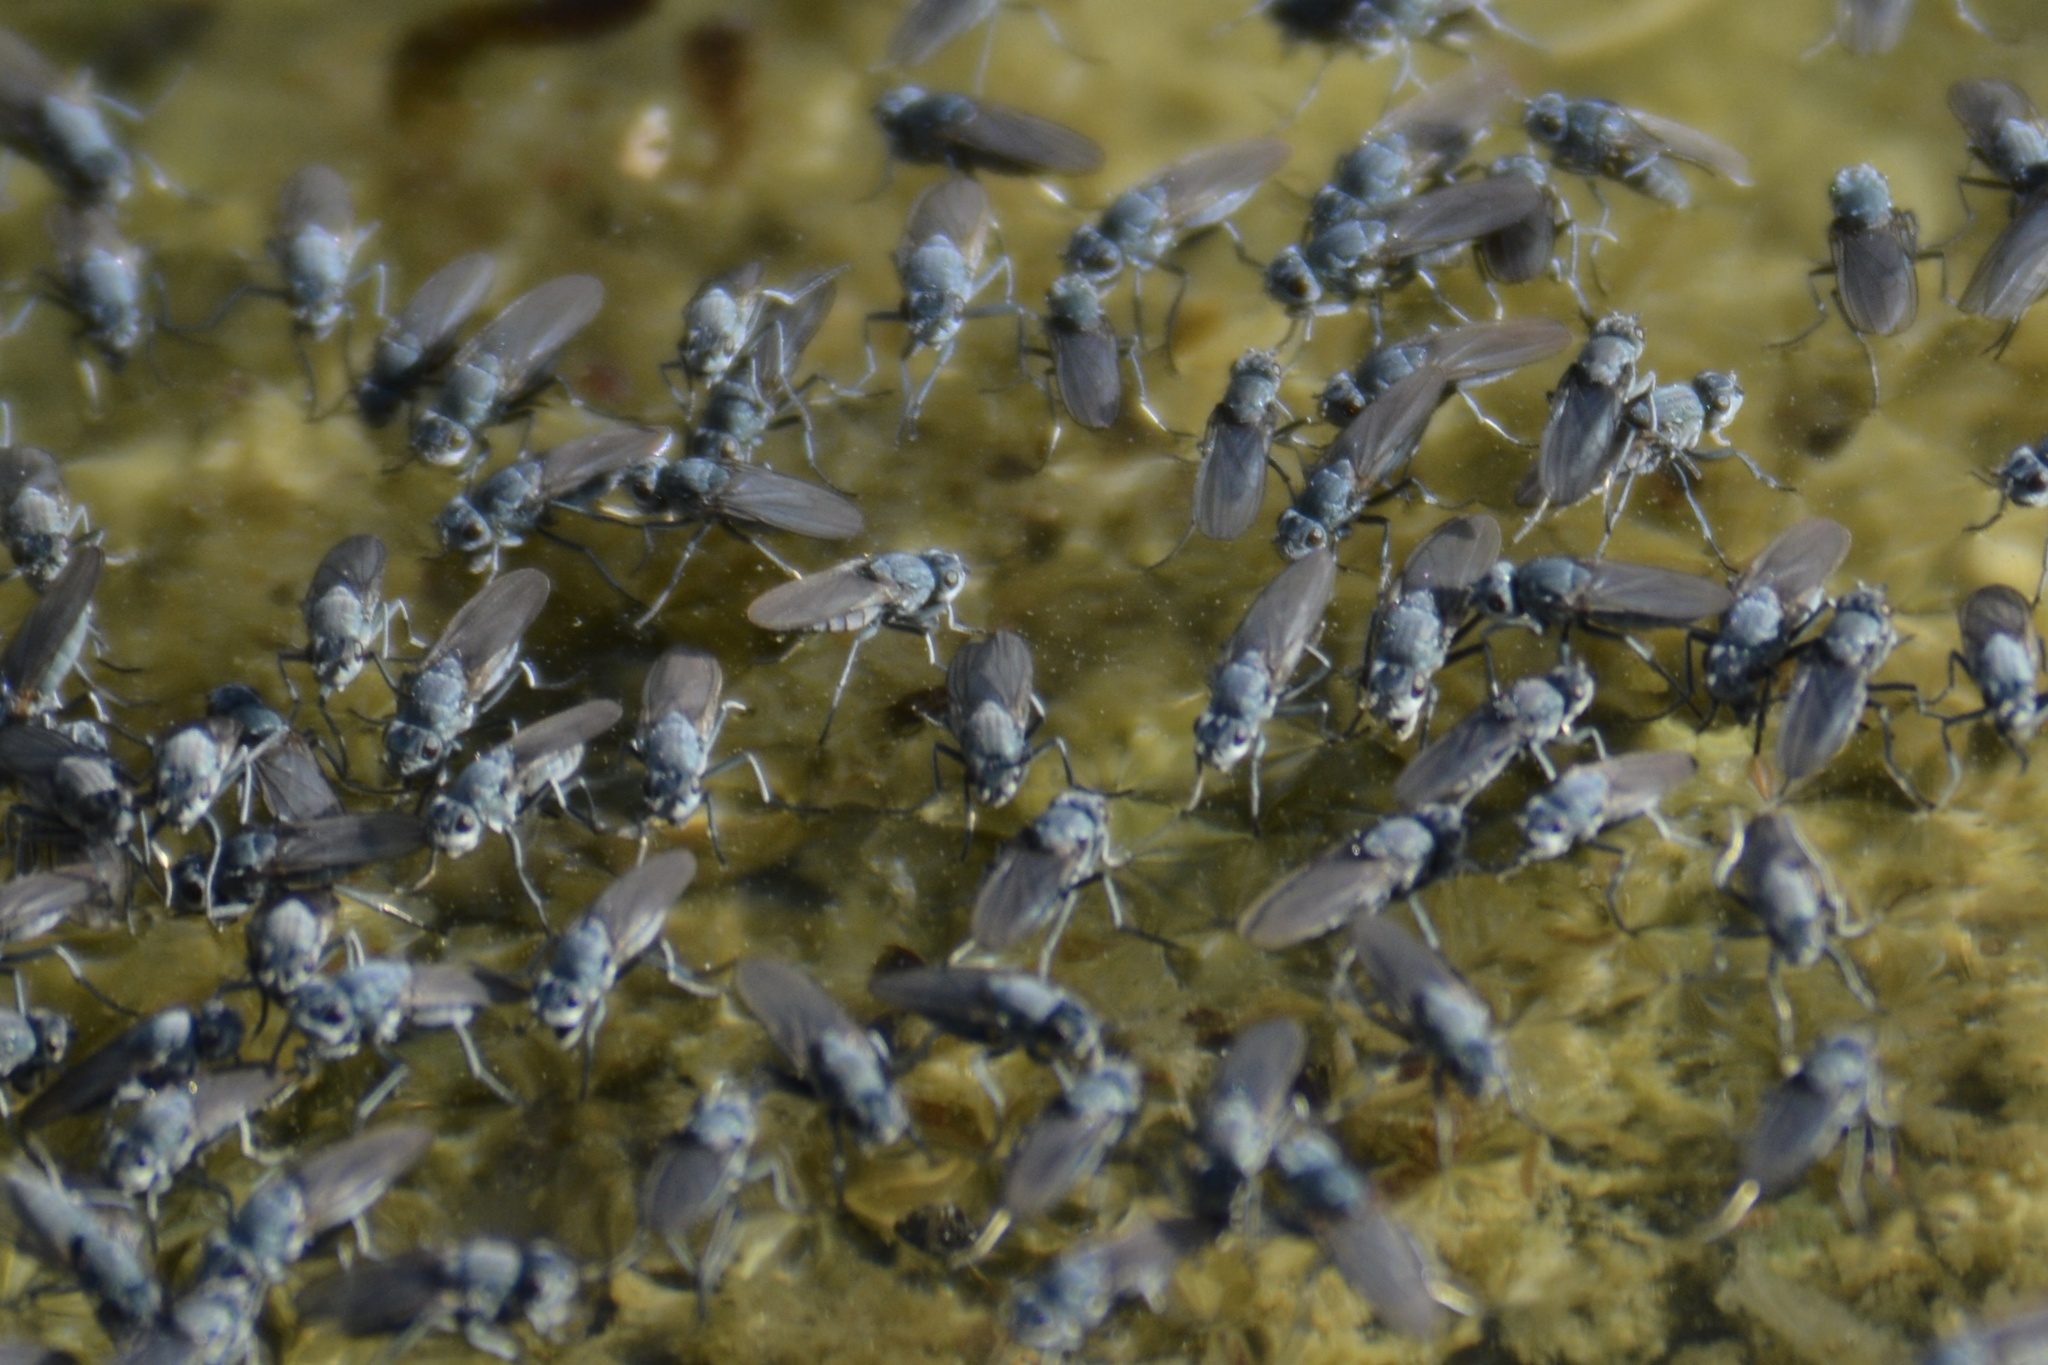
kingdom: Animalia
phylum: Arthropoda
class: Insecta
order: Diptera
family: Ephydridae
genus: Cirrula
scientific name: Cirrula hians
